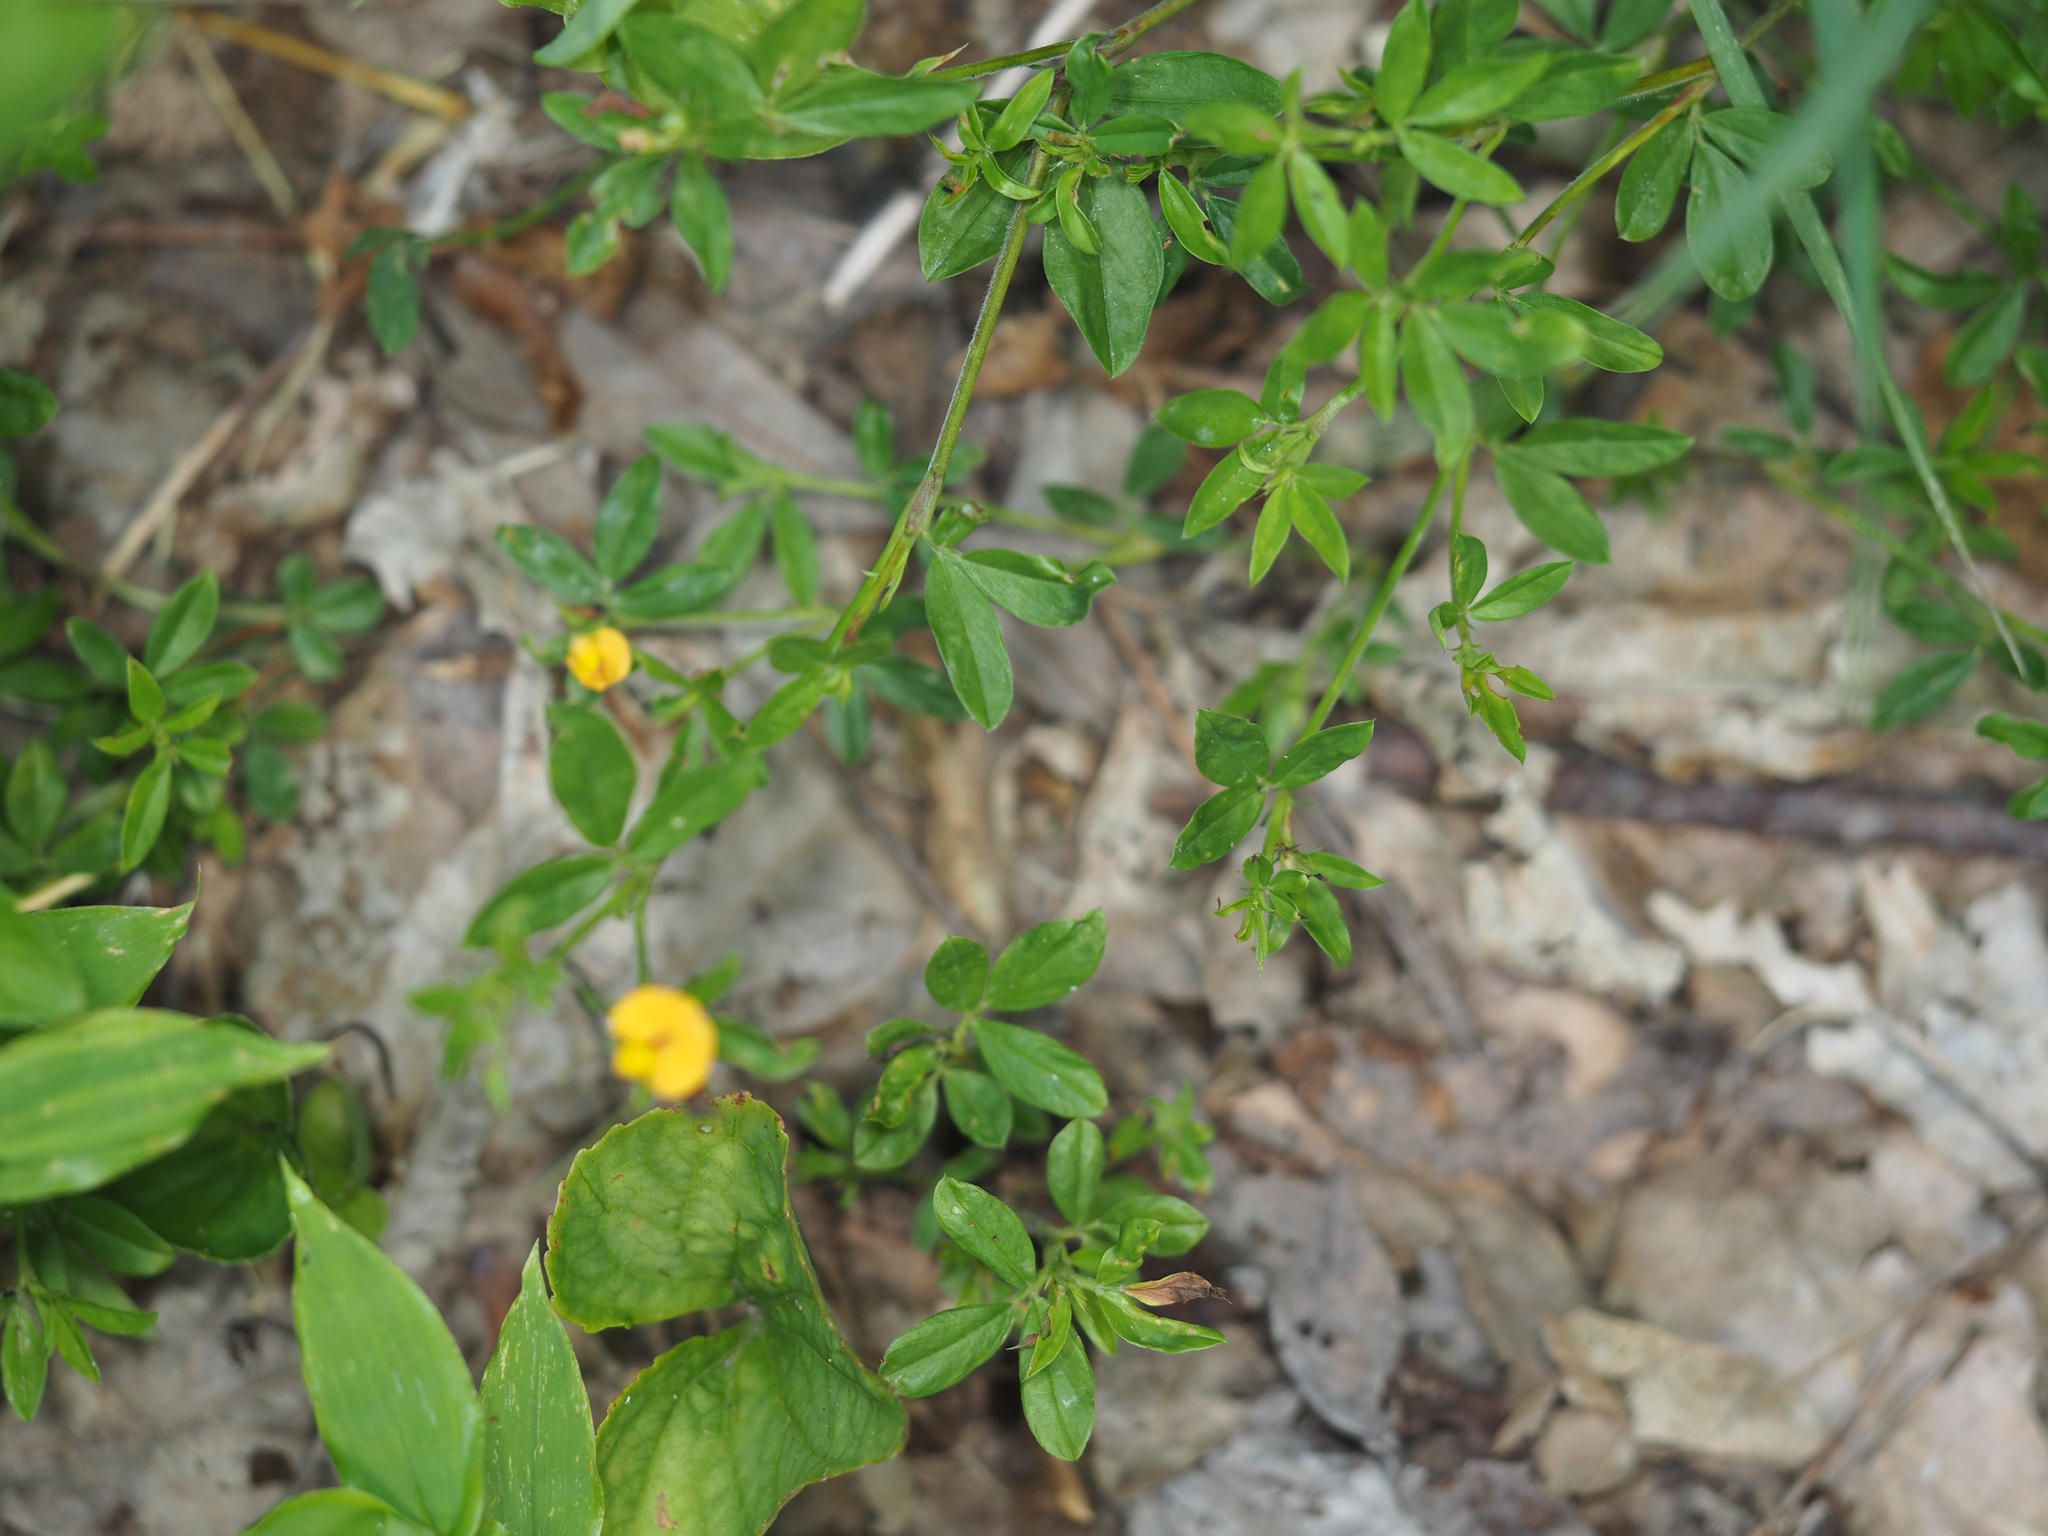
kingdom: Plantae
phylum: Tracheophyta
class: Magnoliopsida
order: Fabales
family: Fabaceae
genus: Stylosanthes
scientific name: Stylosanthes biflora
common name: Two-flower pencil-flower
